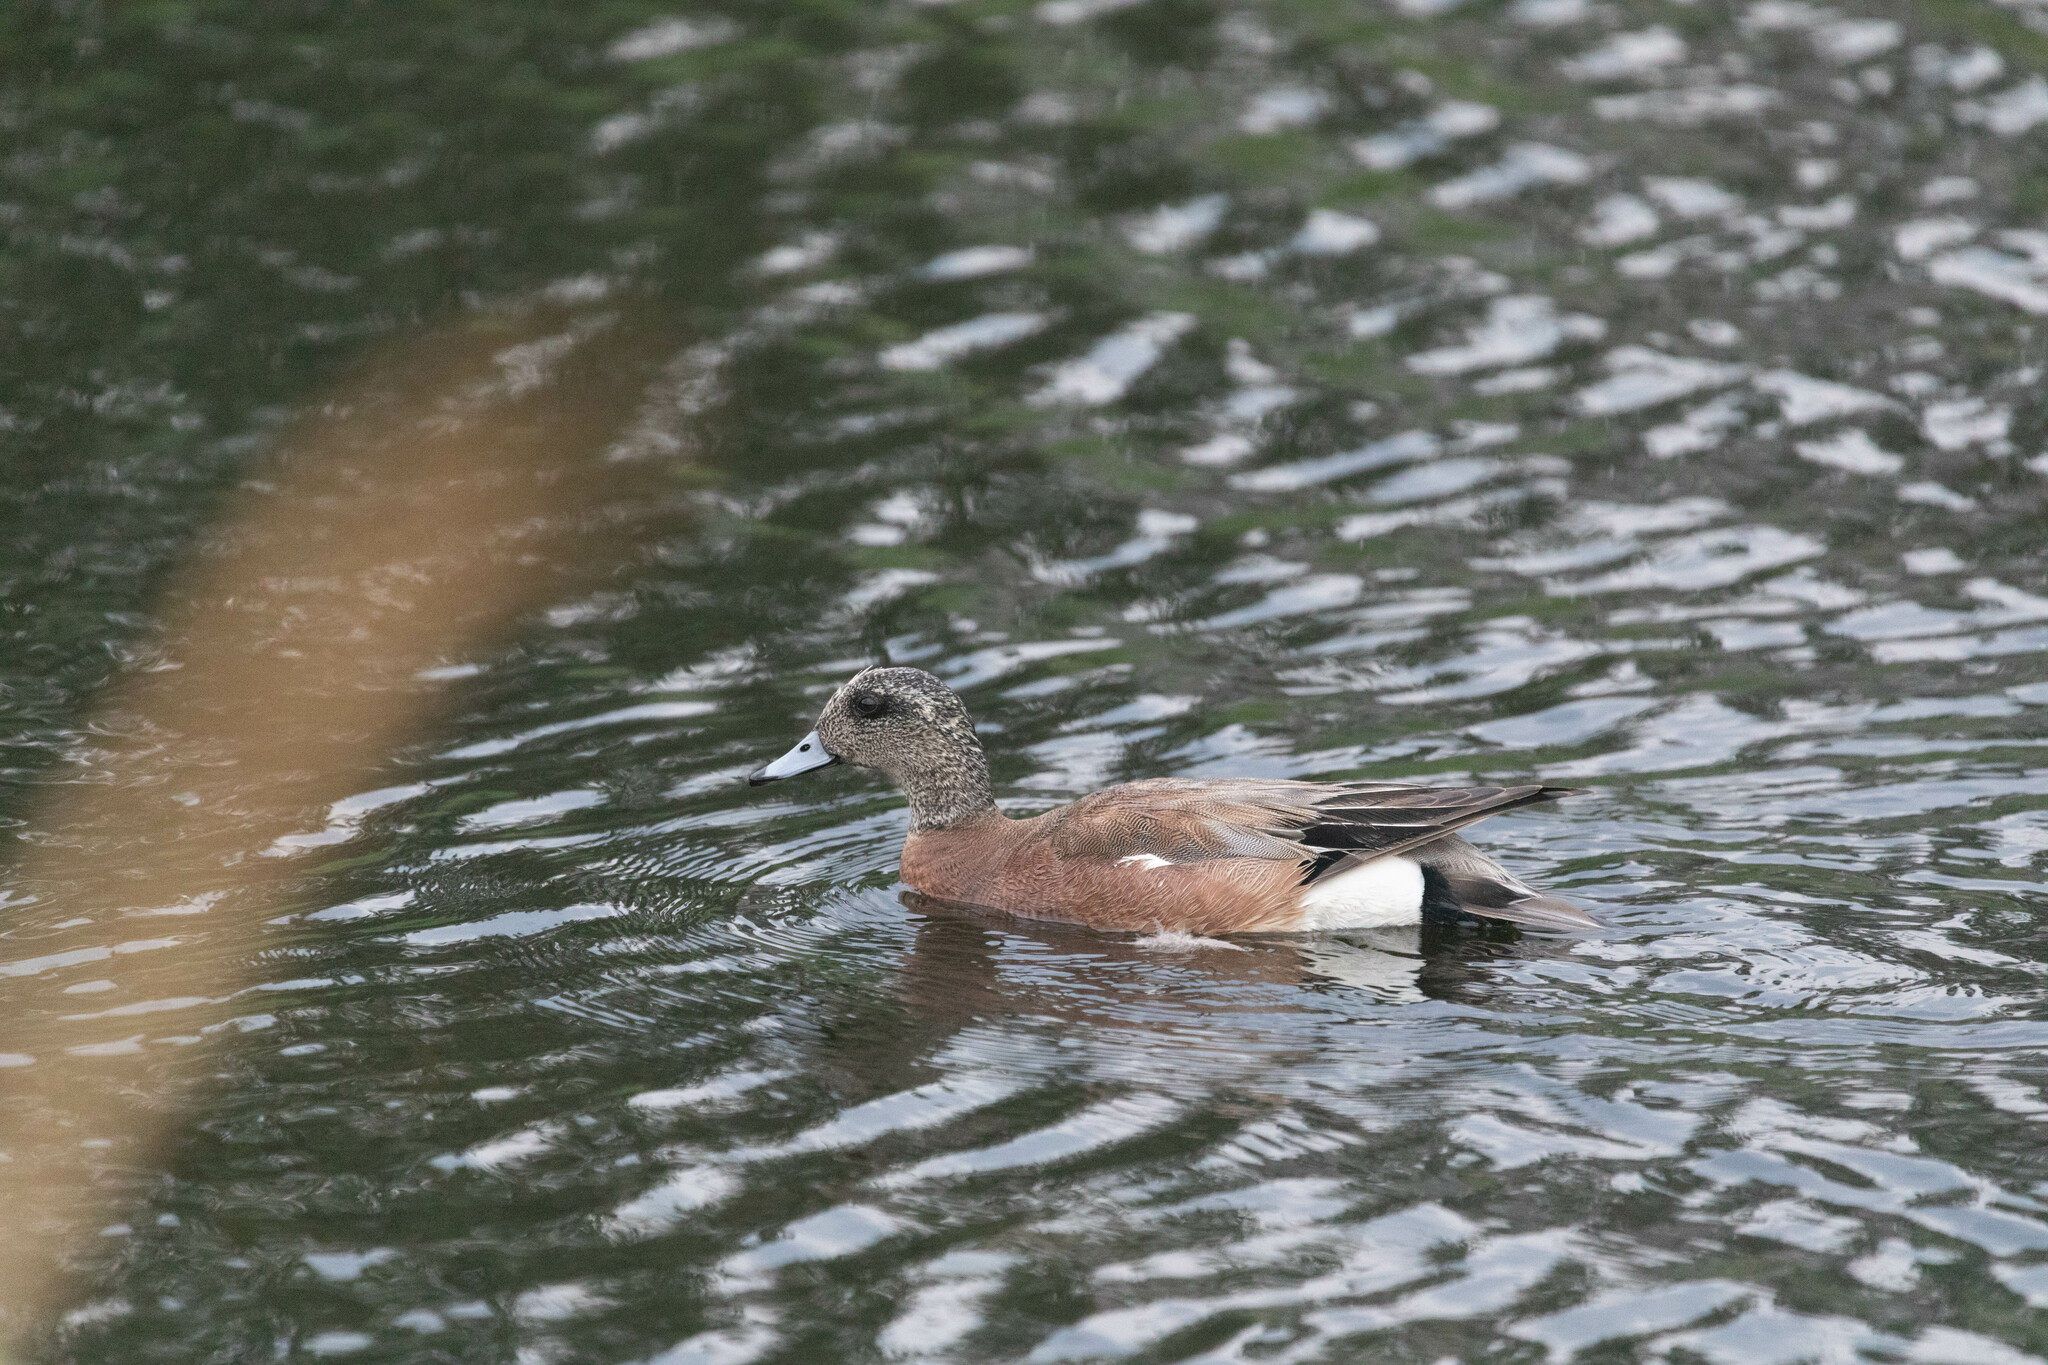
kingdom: Animalia
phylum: Chordata
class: Aves
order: Anseriformes
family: Anatidae
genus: Mareca
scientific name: Mareca americana
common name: American wigeon
